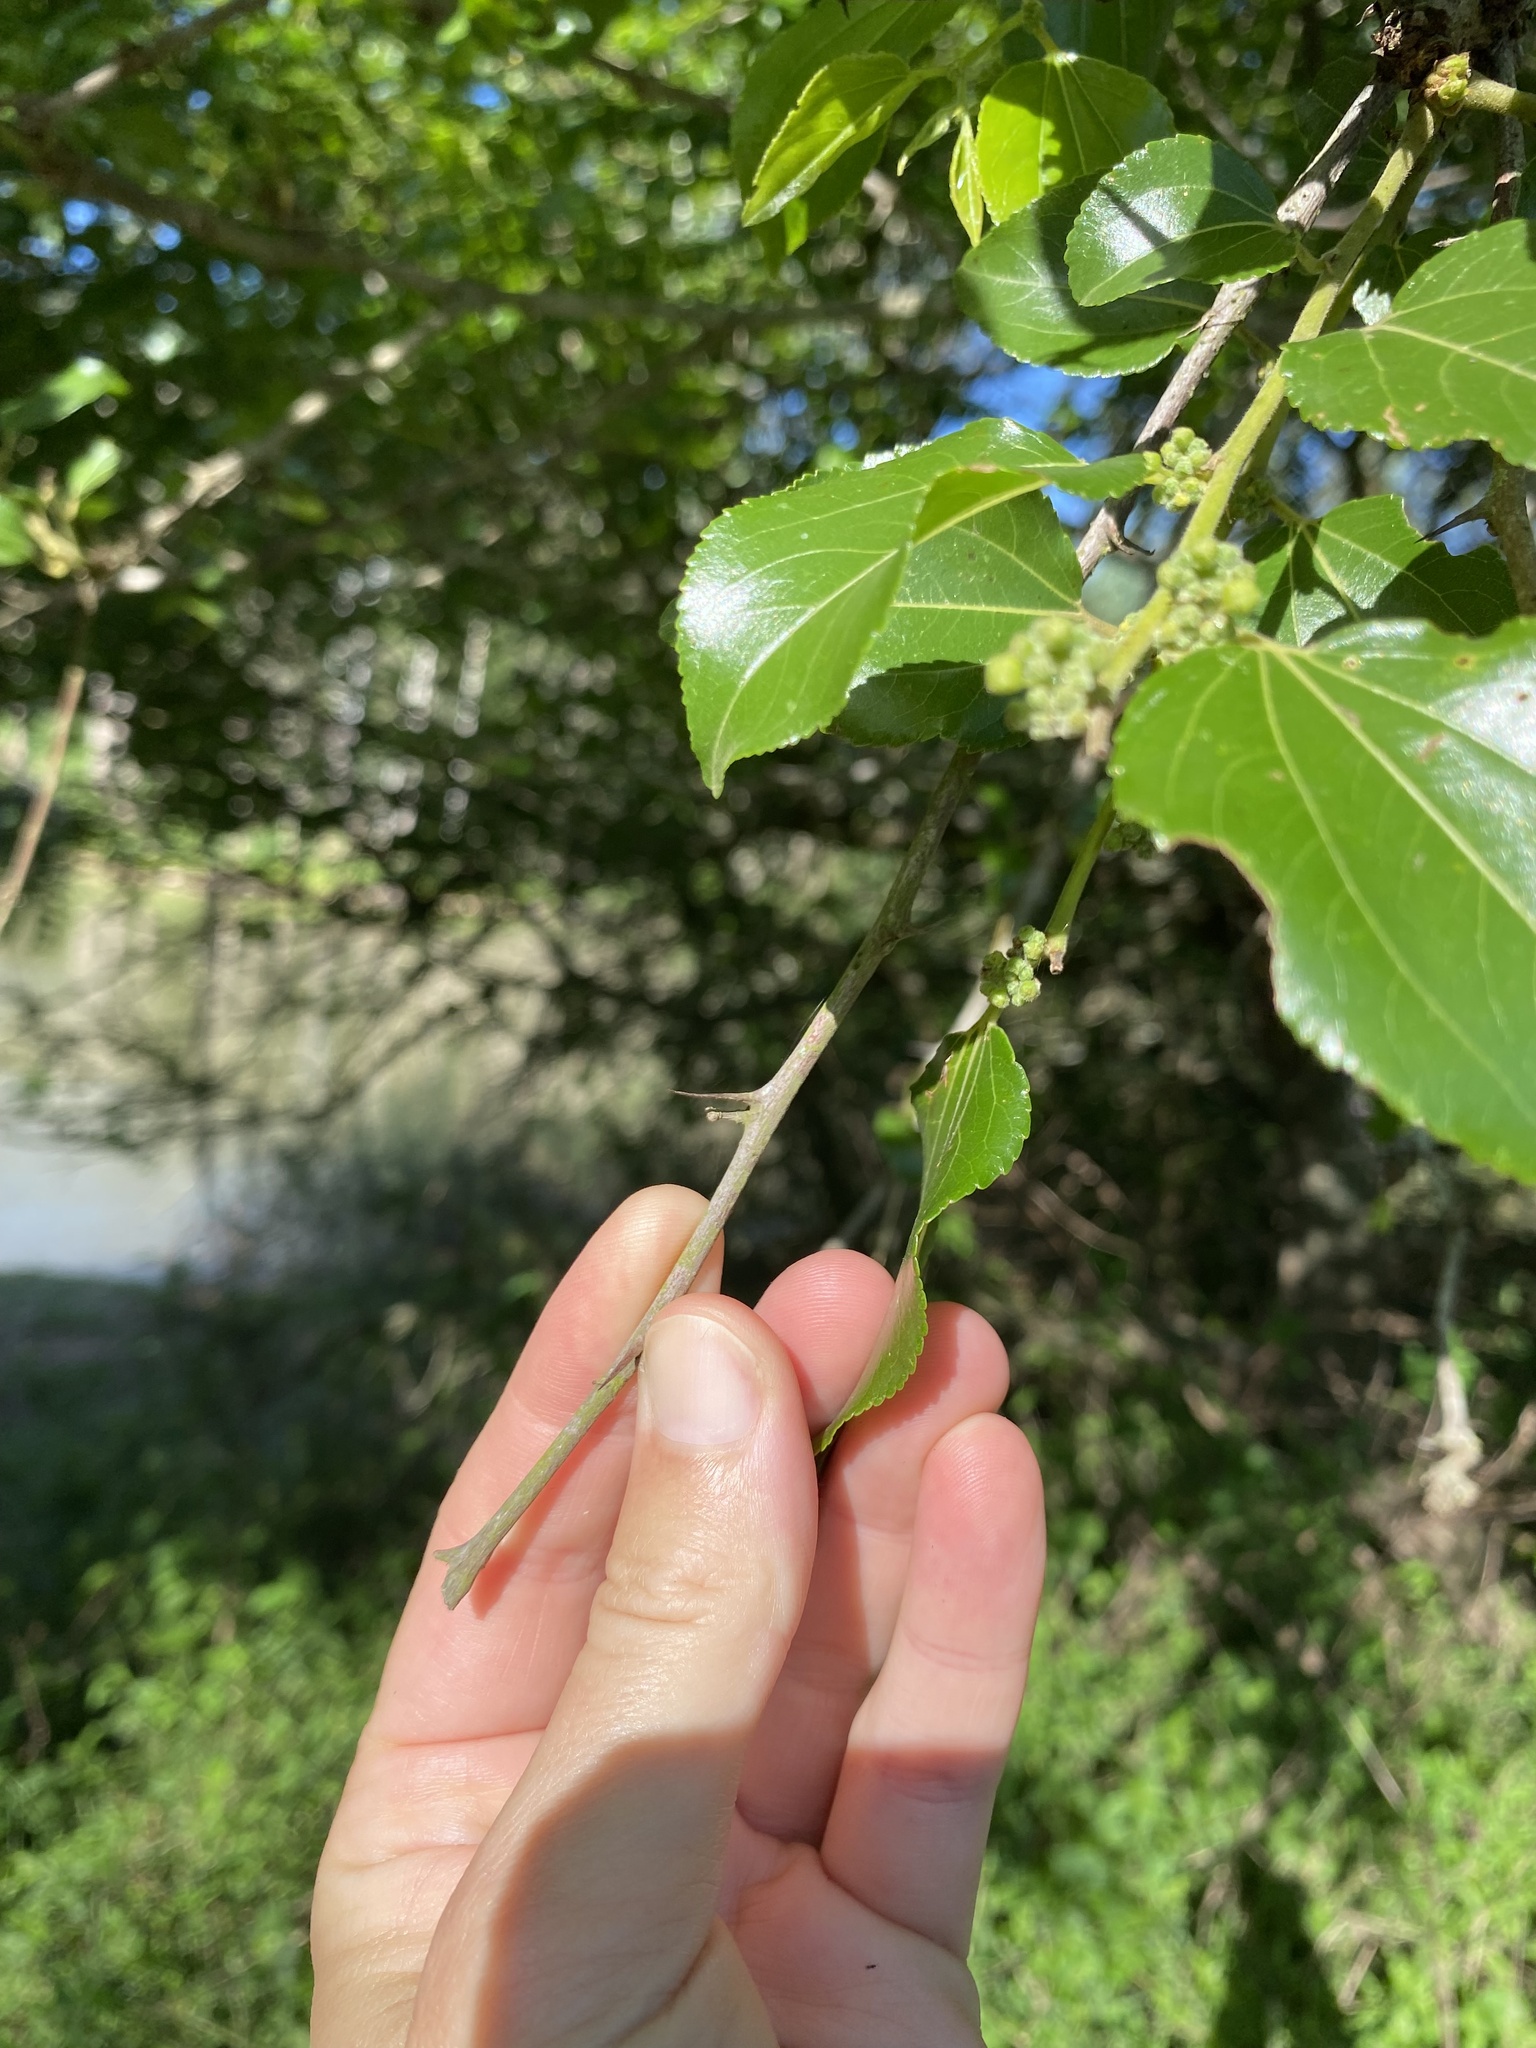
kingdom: Plantae
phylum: Tracheophyta
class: Magnoliopsida
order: Rosales
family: Rhamnaceae
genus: Ziziphus
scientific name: Ziziphus mucronata
